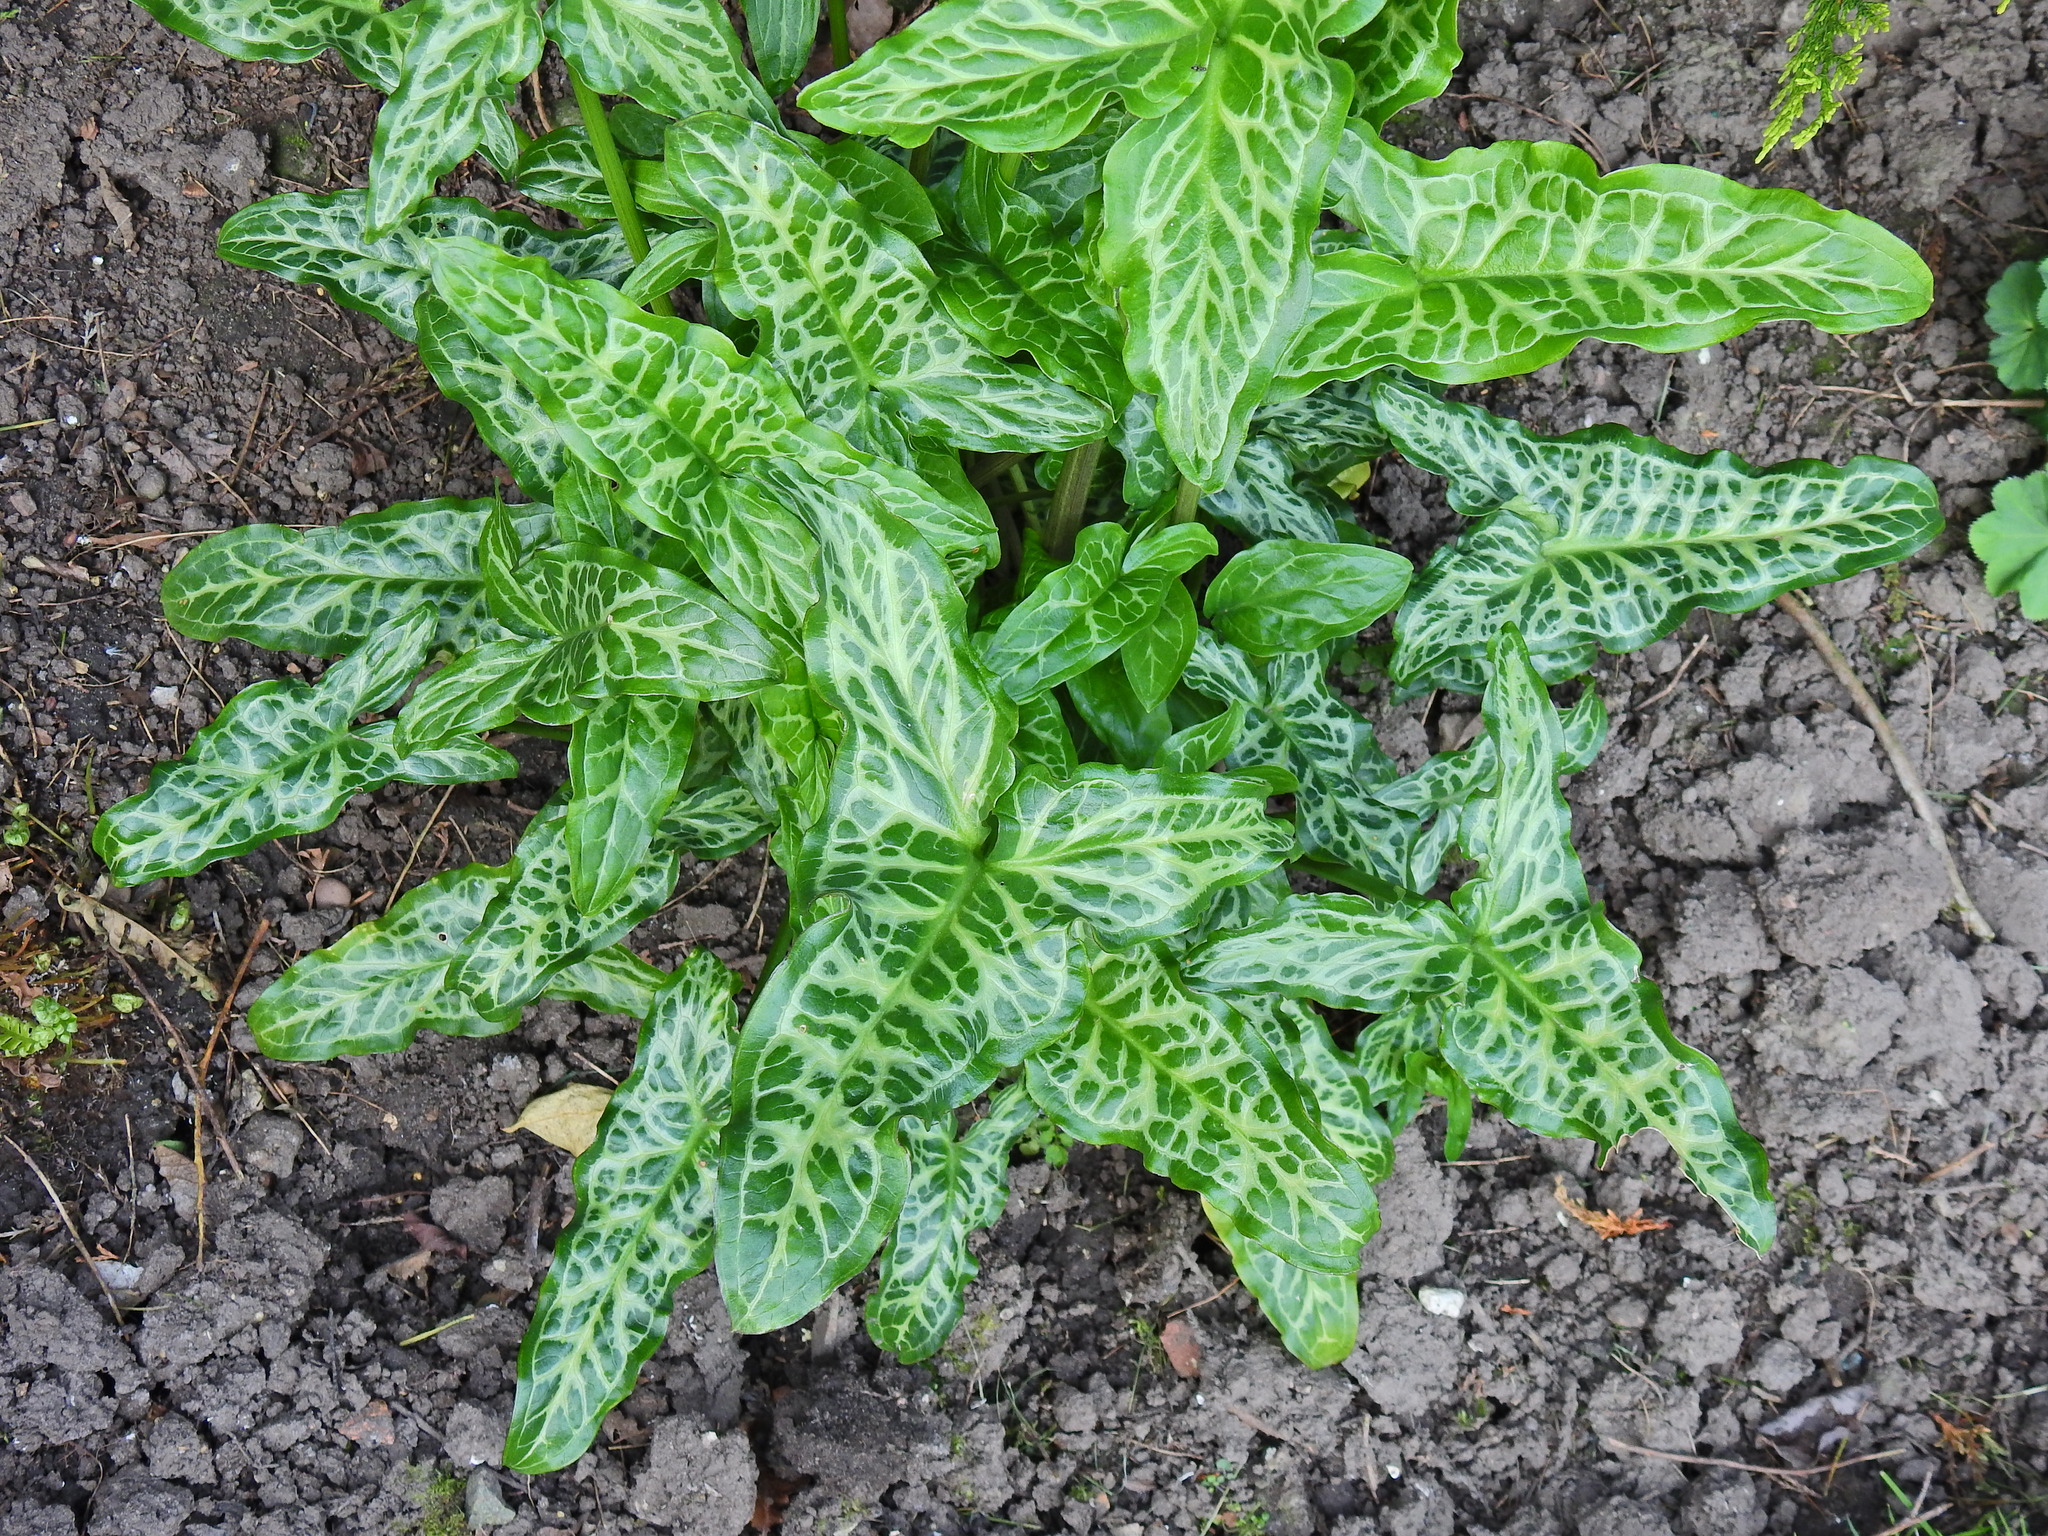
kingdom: Plantae
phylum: Tracheophyta
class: Liliopsida
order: Alismatales
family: Araceae
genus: Arum
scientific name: Arum italicum
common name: Italian lords-and-ladies
